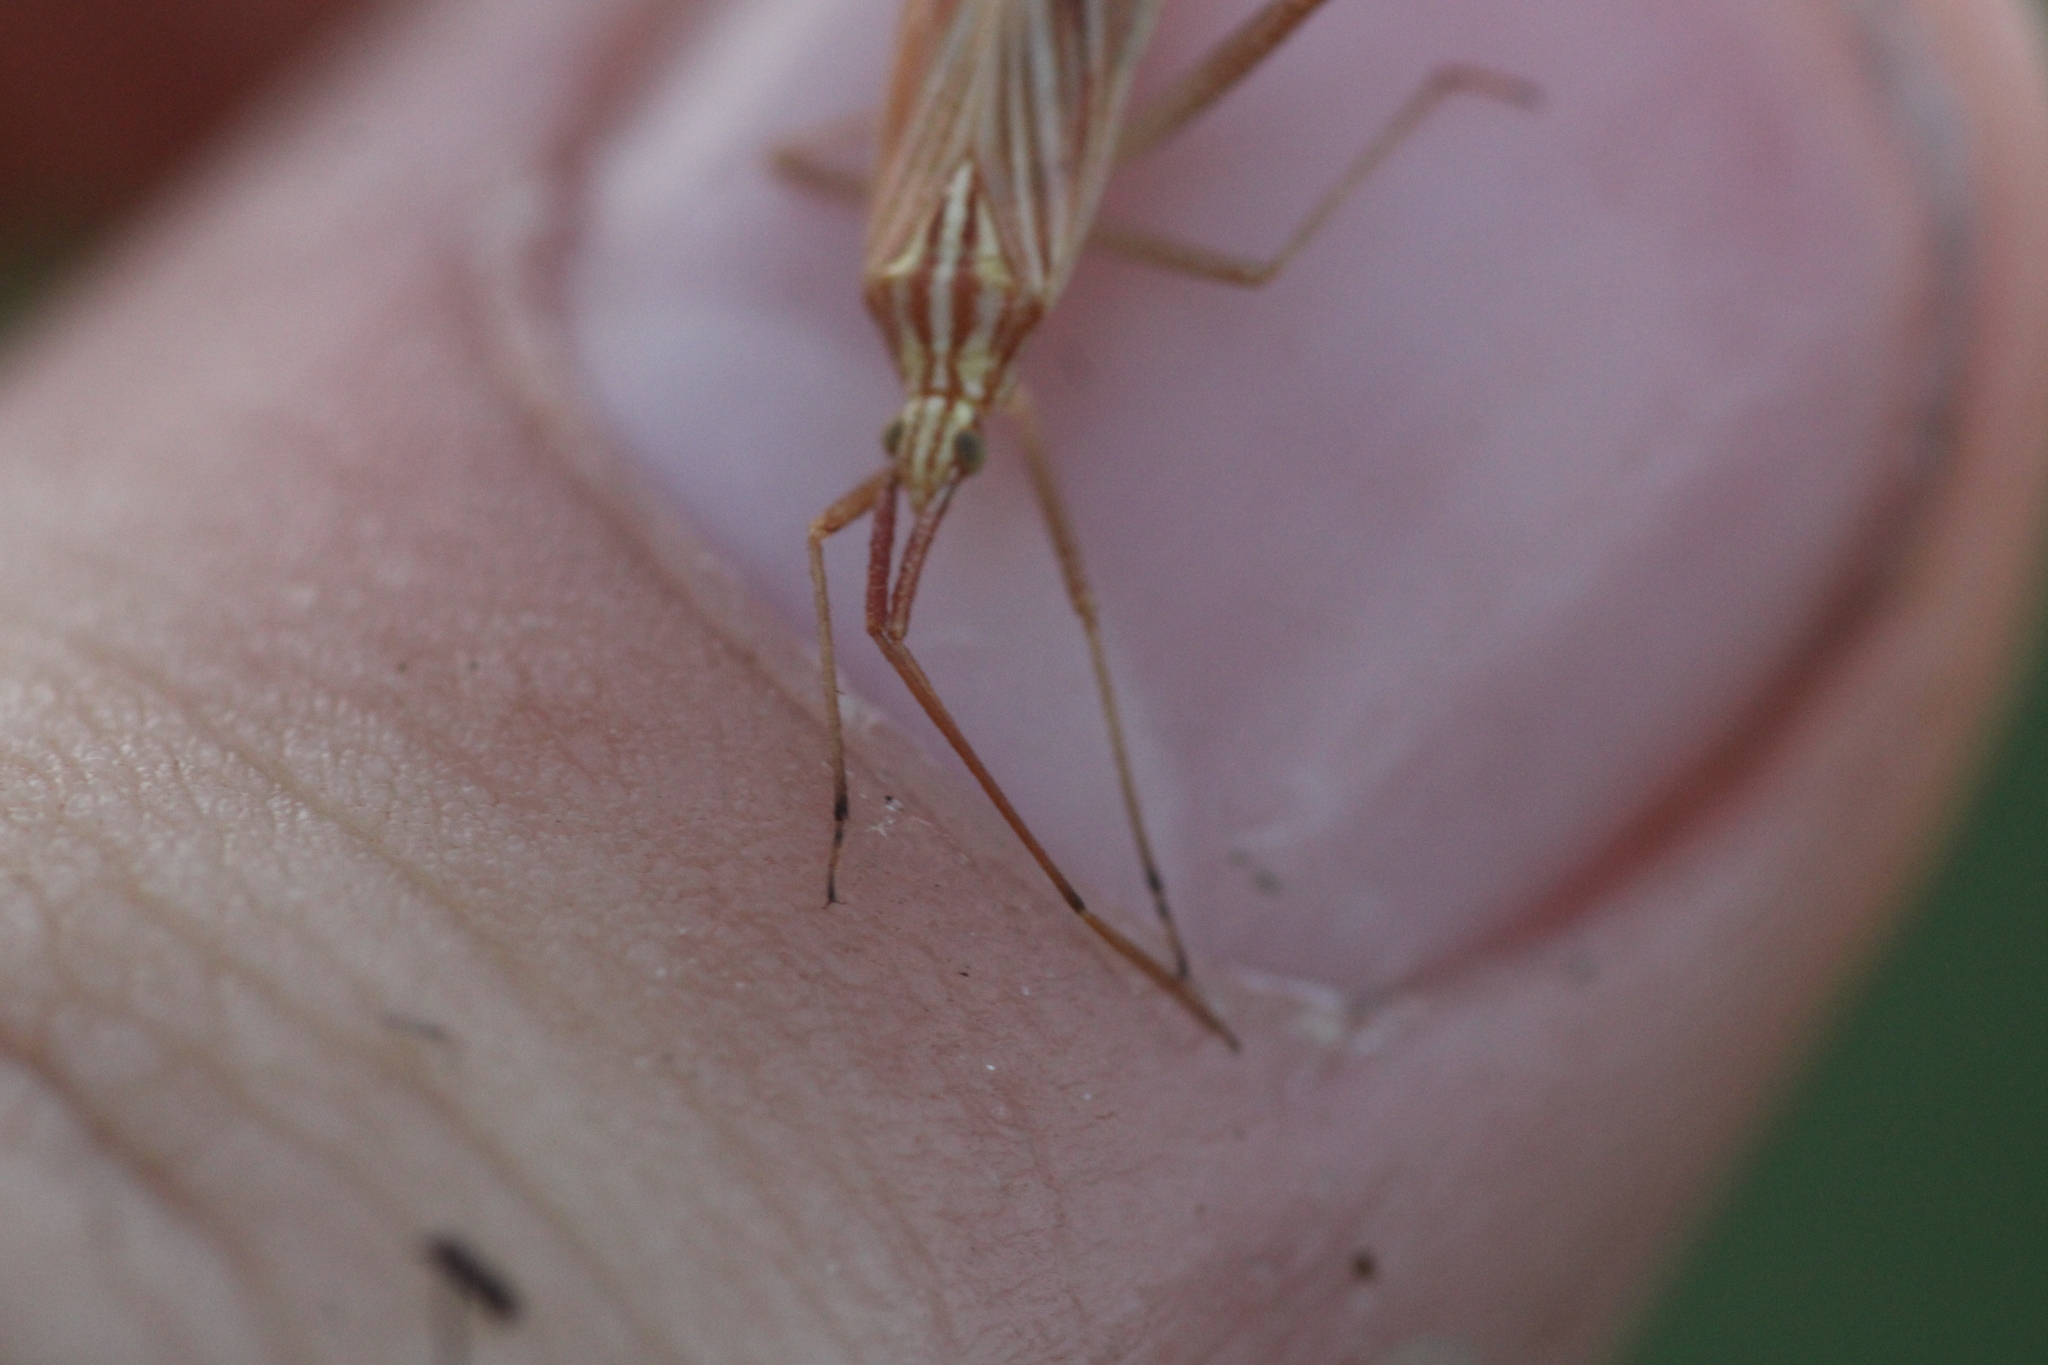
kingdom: Animalia
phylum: Arthropoda
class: Insecta
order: Hemiptera
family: Miridae
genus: Miridius
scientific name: Miridius quadrivirgatus
